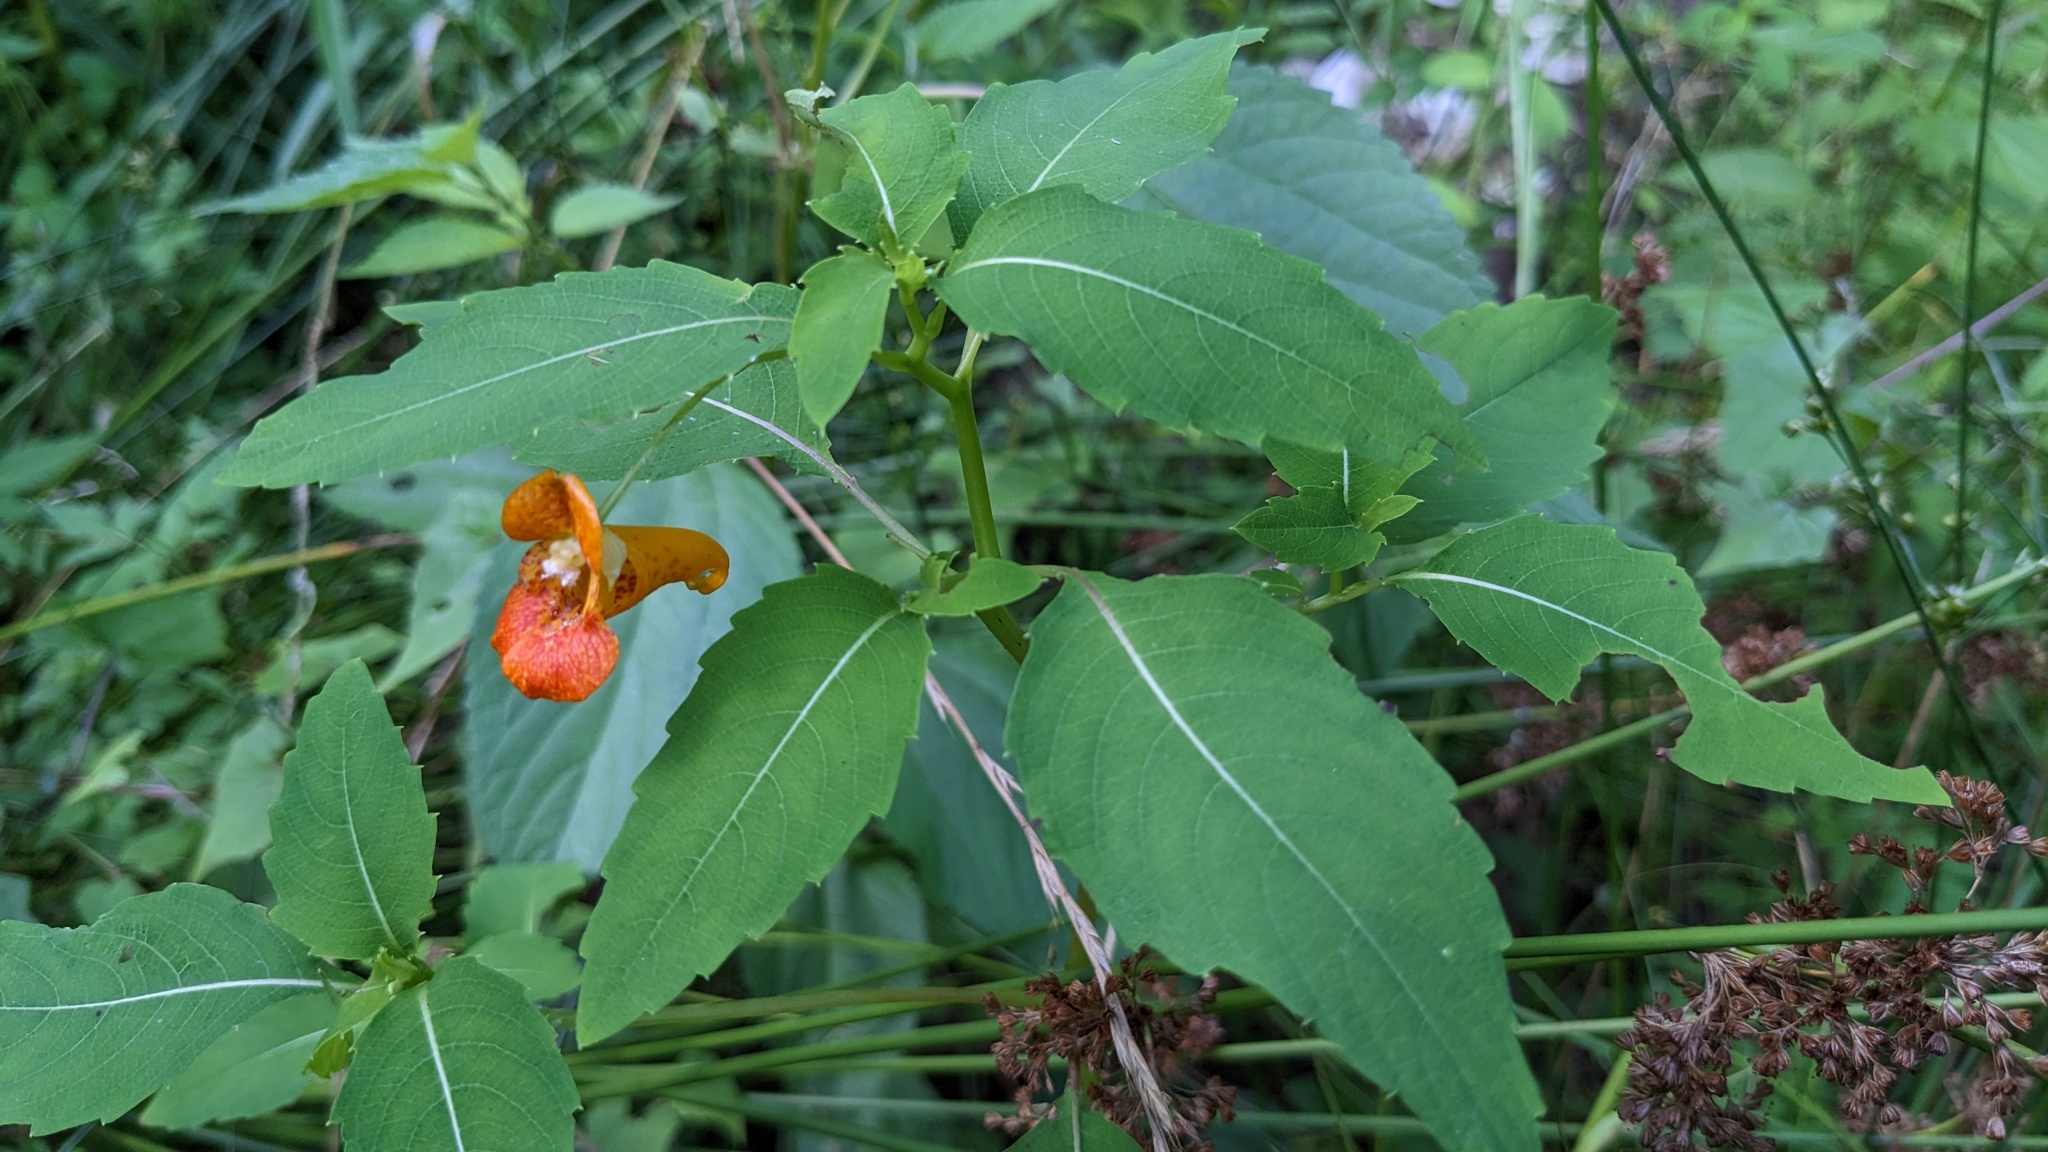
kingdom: Plantae
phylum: Tracheophyta
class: Magnoliopsida
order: Ericales
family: Balsaminaceae
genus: Impatiens
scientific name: Impatiens capensis
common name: Orange balsam
